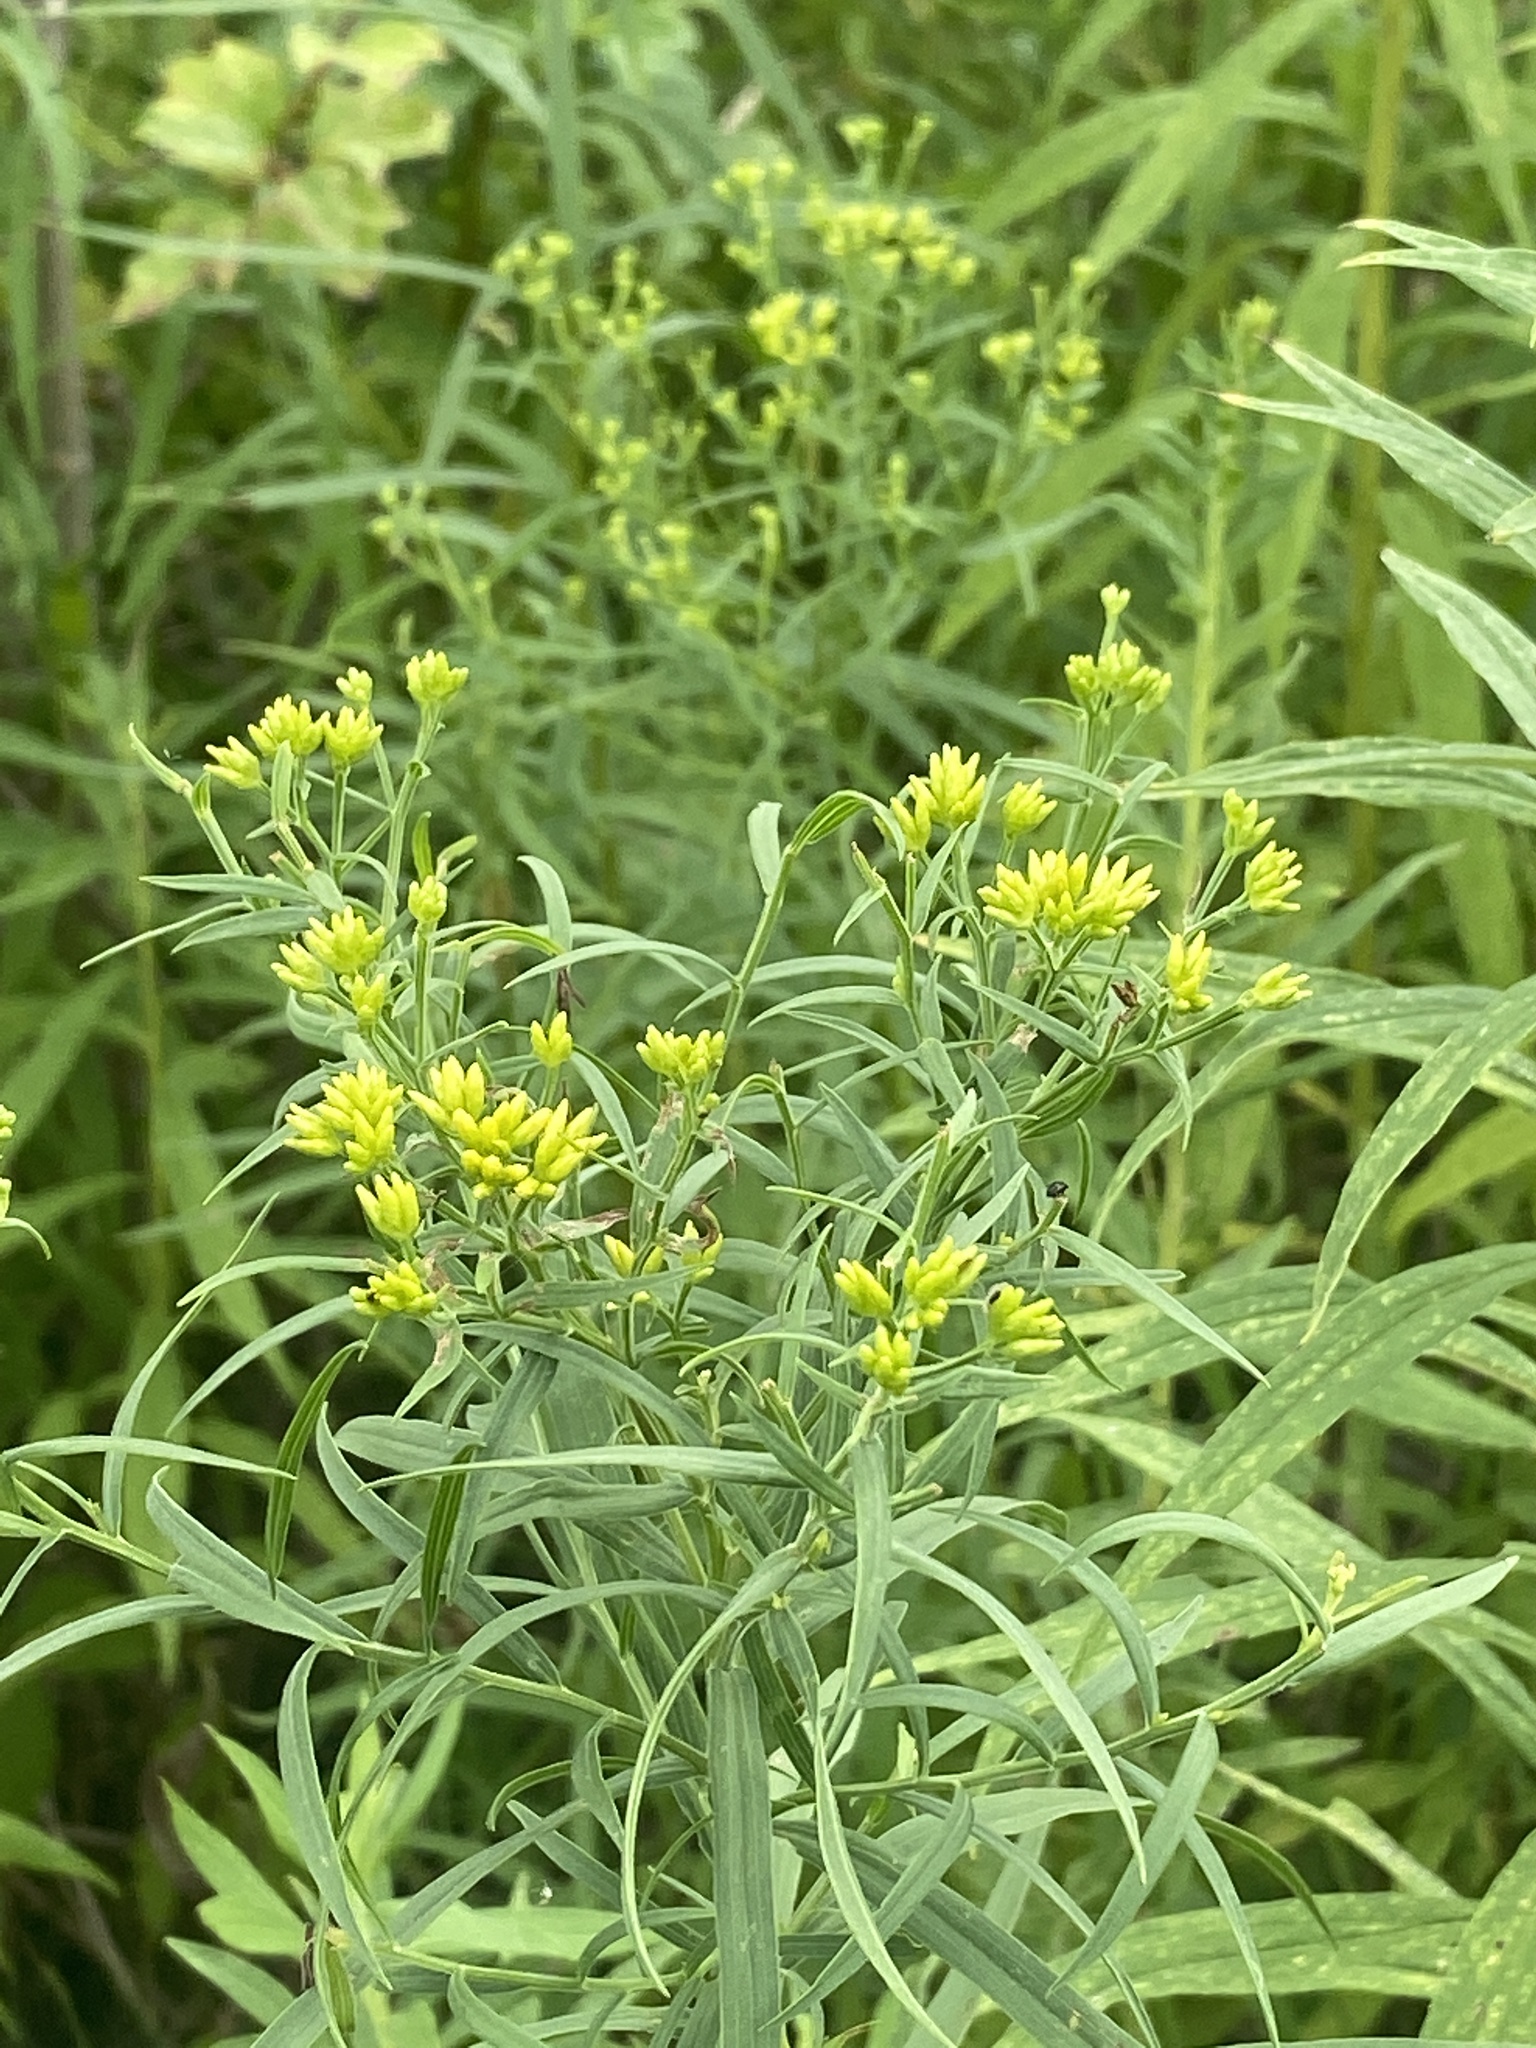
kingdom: Plantae
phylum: Tracheophyta
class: Magnoliopsida
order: Asterales
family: Asteraceae
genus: Euthamia
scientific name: Euthamia graminifolia
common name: Common goldentop
